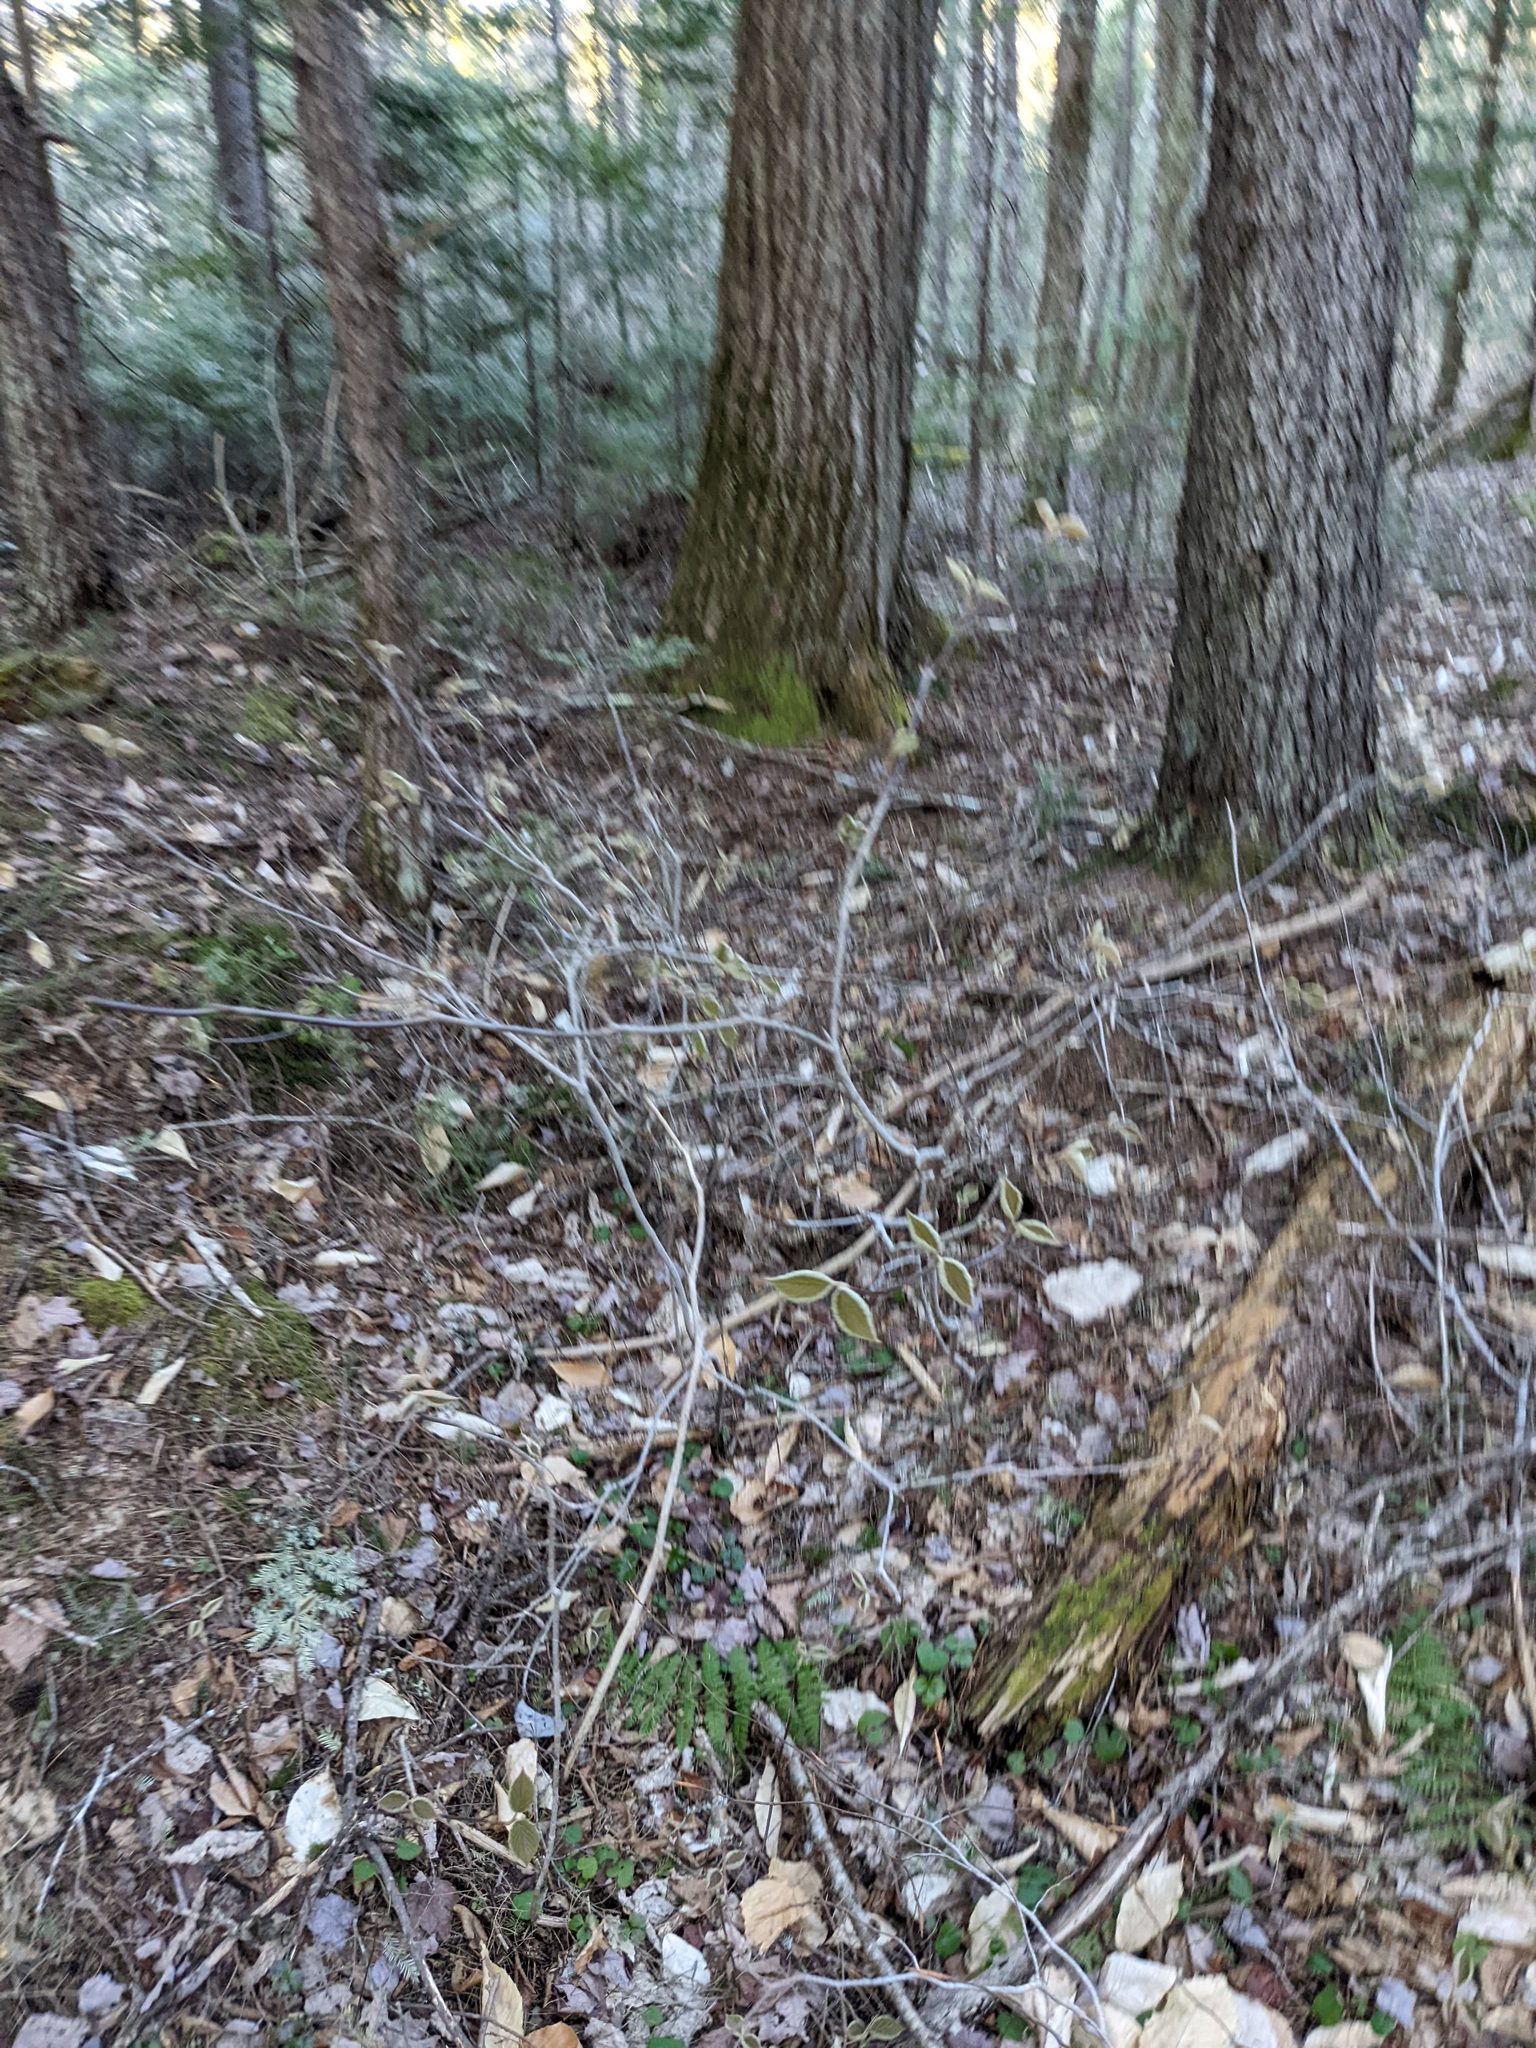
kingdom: Plantae
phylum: Tracheophyta
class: Magnoliopsida
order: Dipsacales
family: Viburnaceae
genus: Viburnum
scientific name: Viburnum lantanoides
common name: Hobblebush
